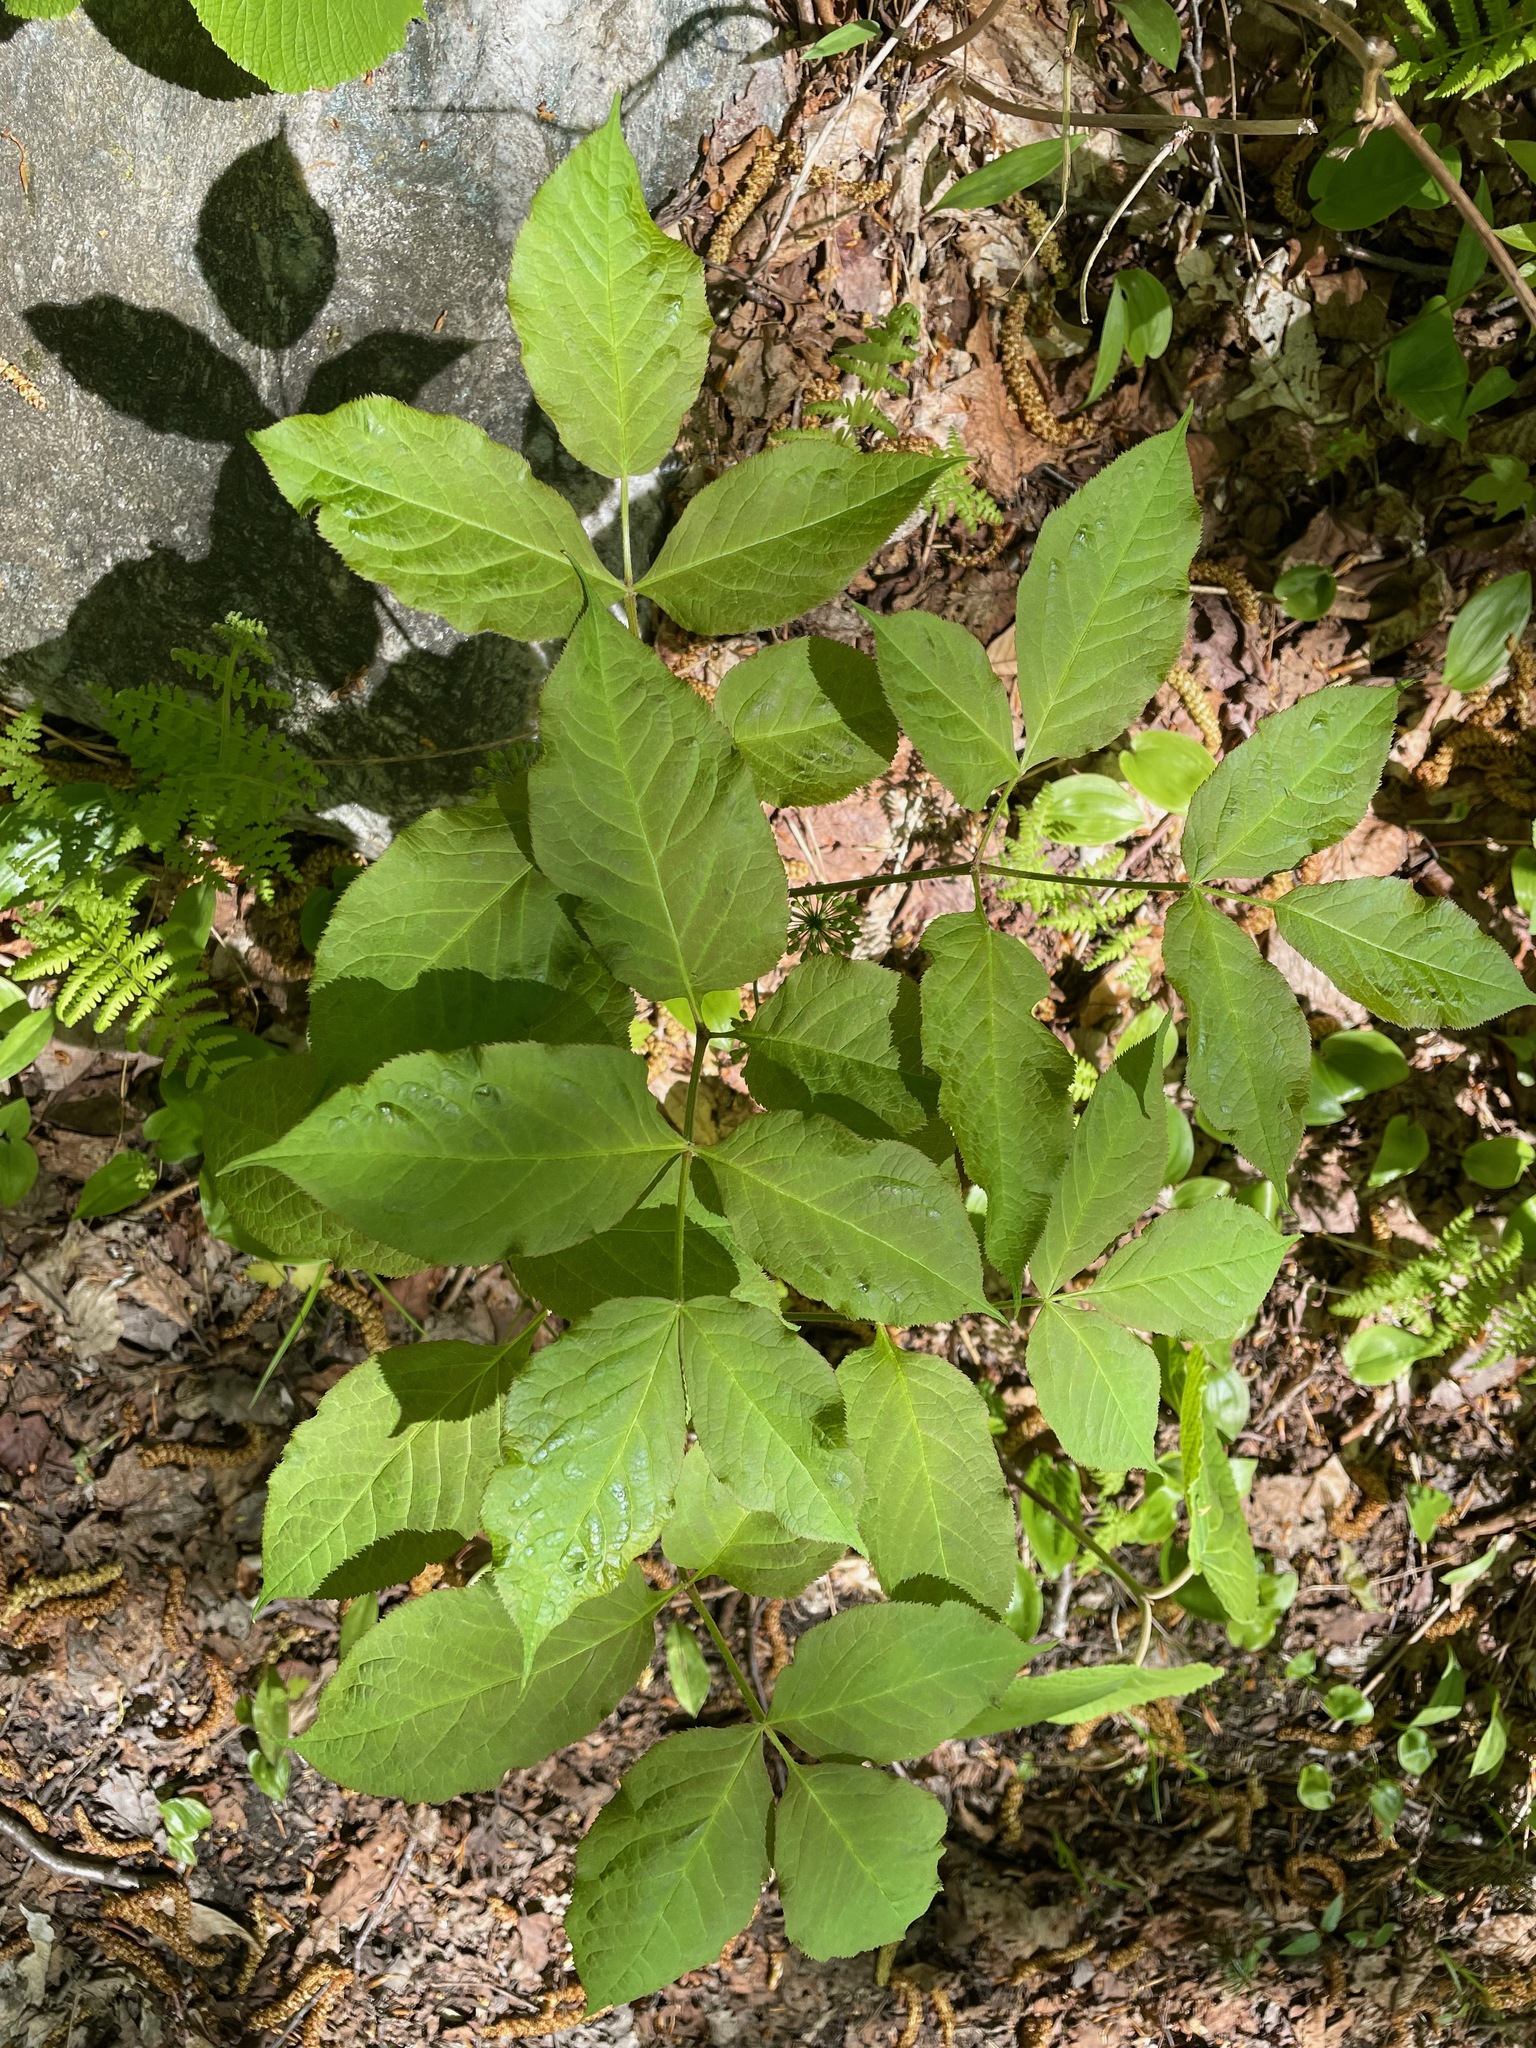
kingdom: Plantae
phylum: Tracheophyta
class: Magnoliopsida
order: Apiales
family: Araliaceae
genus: Aralia
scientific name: Aralia nudicaulis
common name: Wild sarsaparilla
